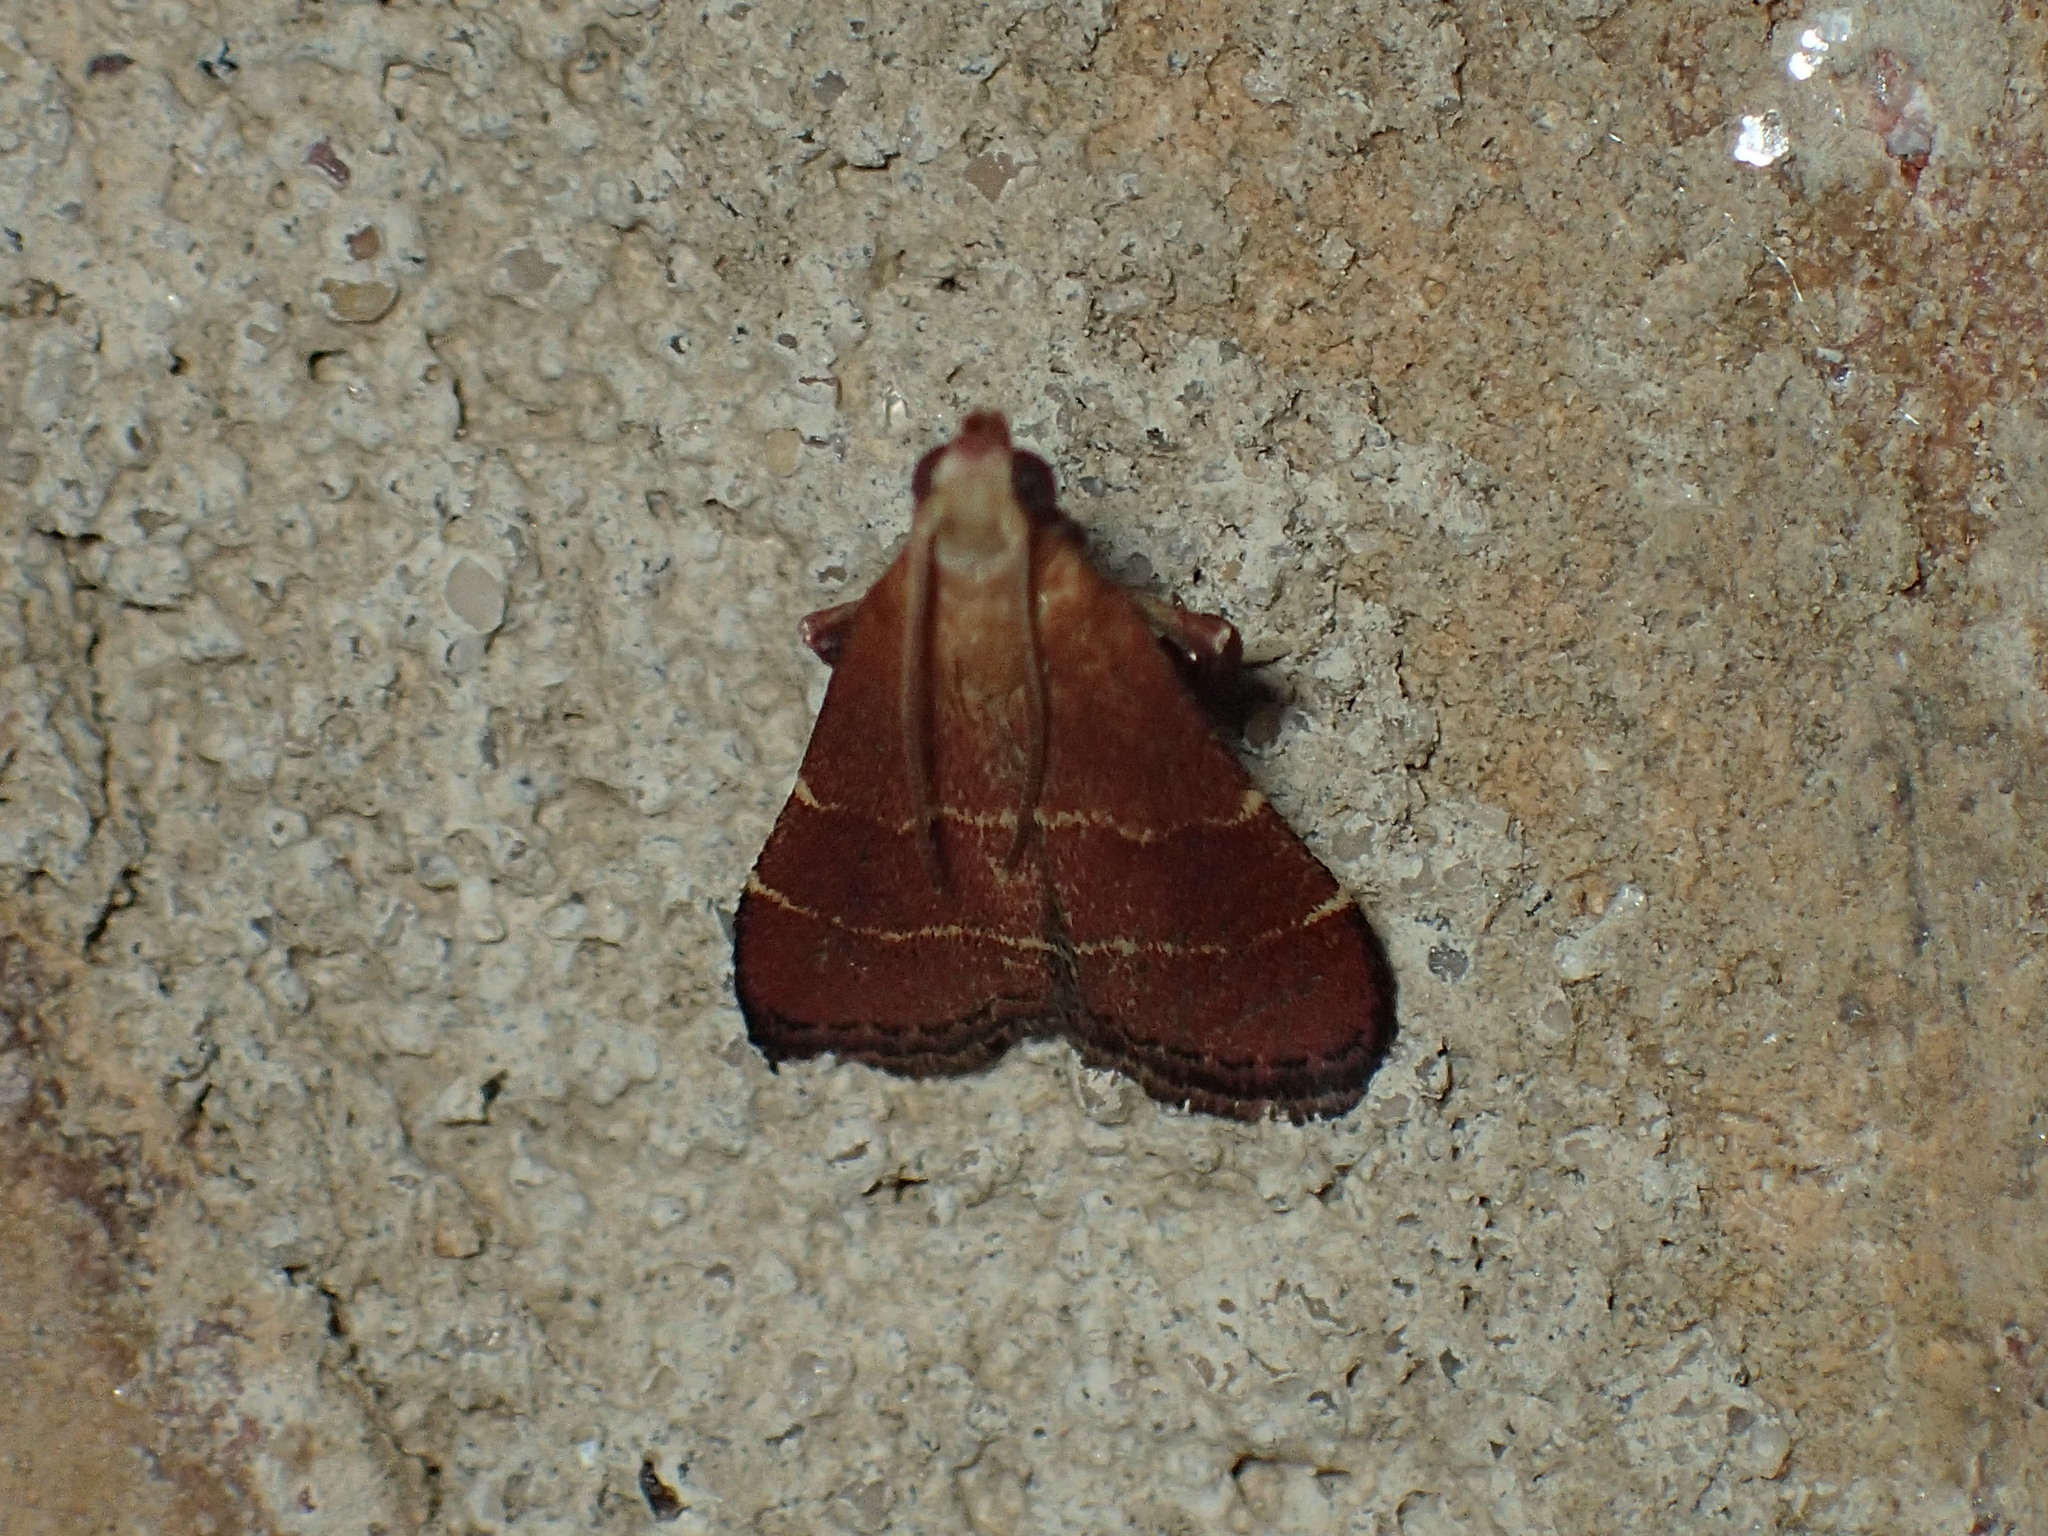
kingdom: Animalia
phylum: Arthropoda
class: Insecta
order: Lepidoptera
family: Pyralidae
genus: Arta
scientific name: Arta statalis
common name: Posturing arta moth
